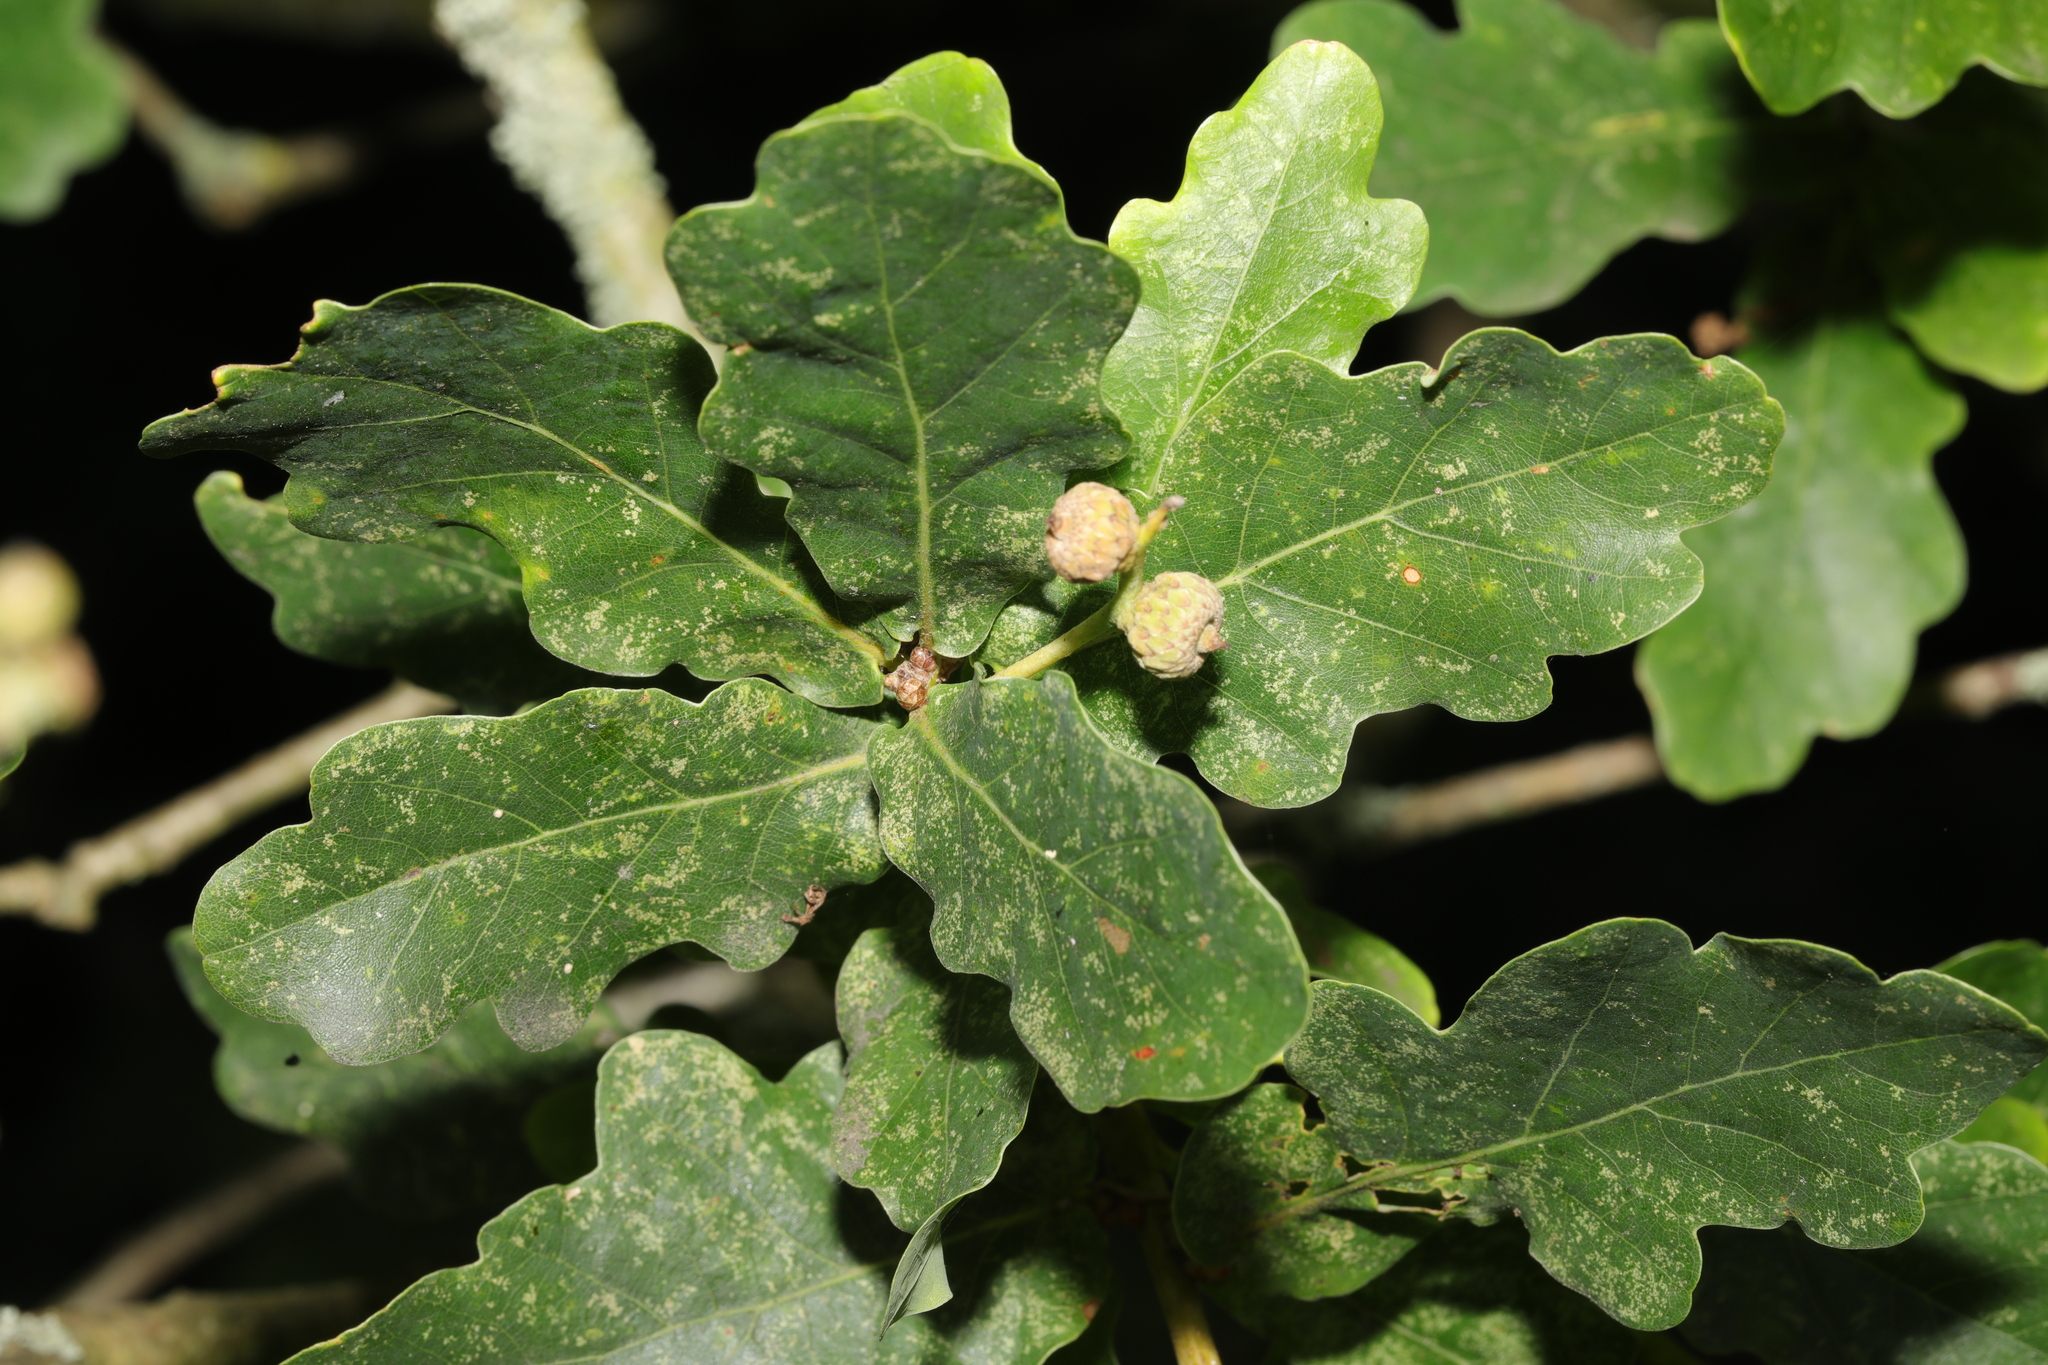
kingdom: Plantae
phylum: Tracheophyta
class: Magnoliopsida
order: Fagales
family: Fagaceae
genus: Quercus
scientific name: Quercus robur
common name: Pedunculate oak
